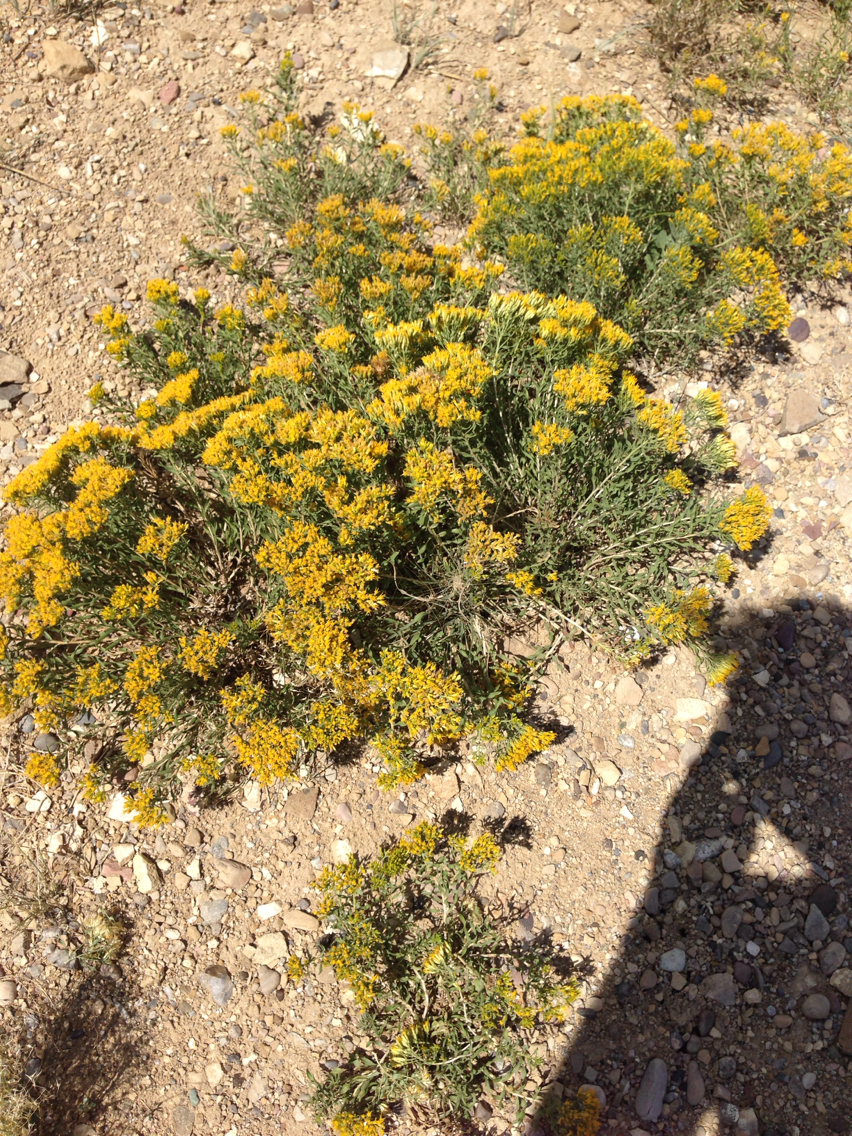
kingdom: Plantae
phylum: Tracheophyta
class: Magnoliopsida
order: Asterales
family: Asteraceae
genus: Chrysothamnus
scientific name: Chrysothamnus viscidiflorus
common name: Yellow rabbitbrush
